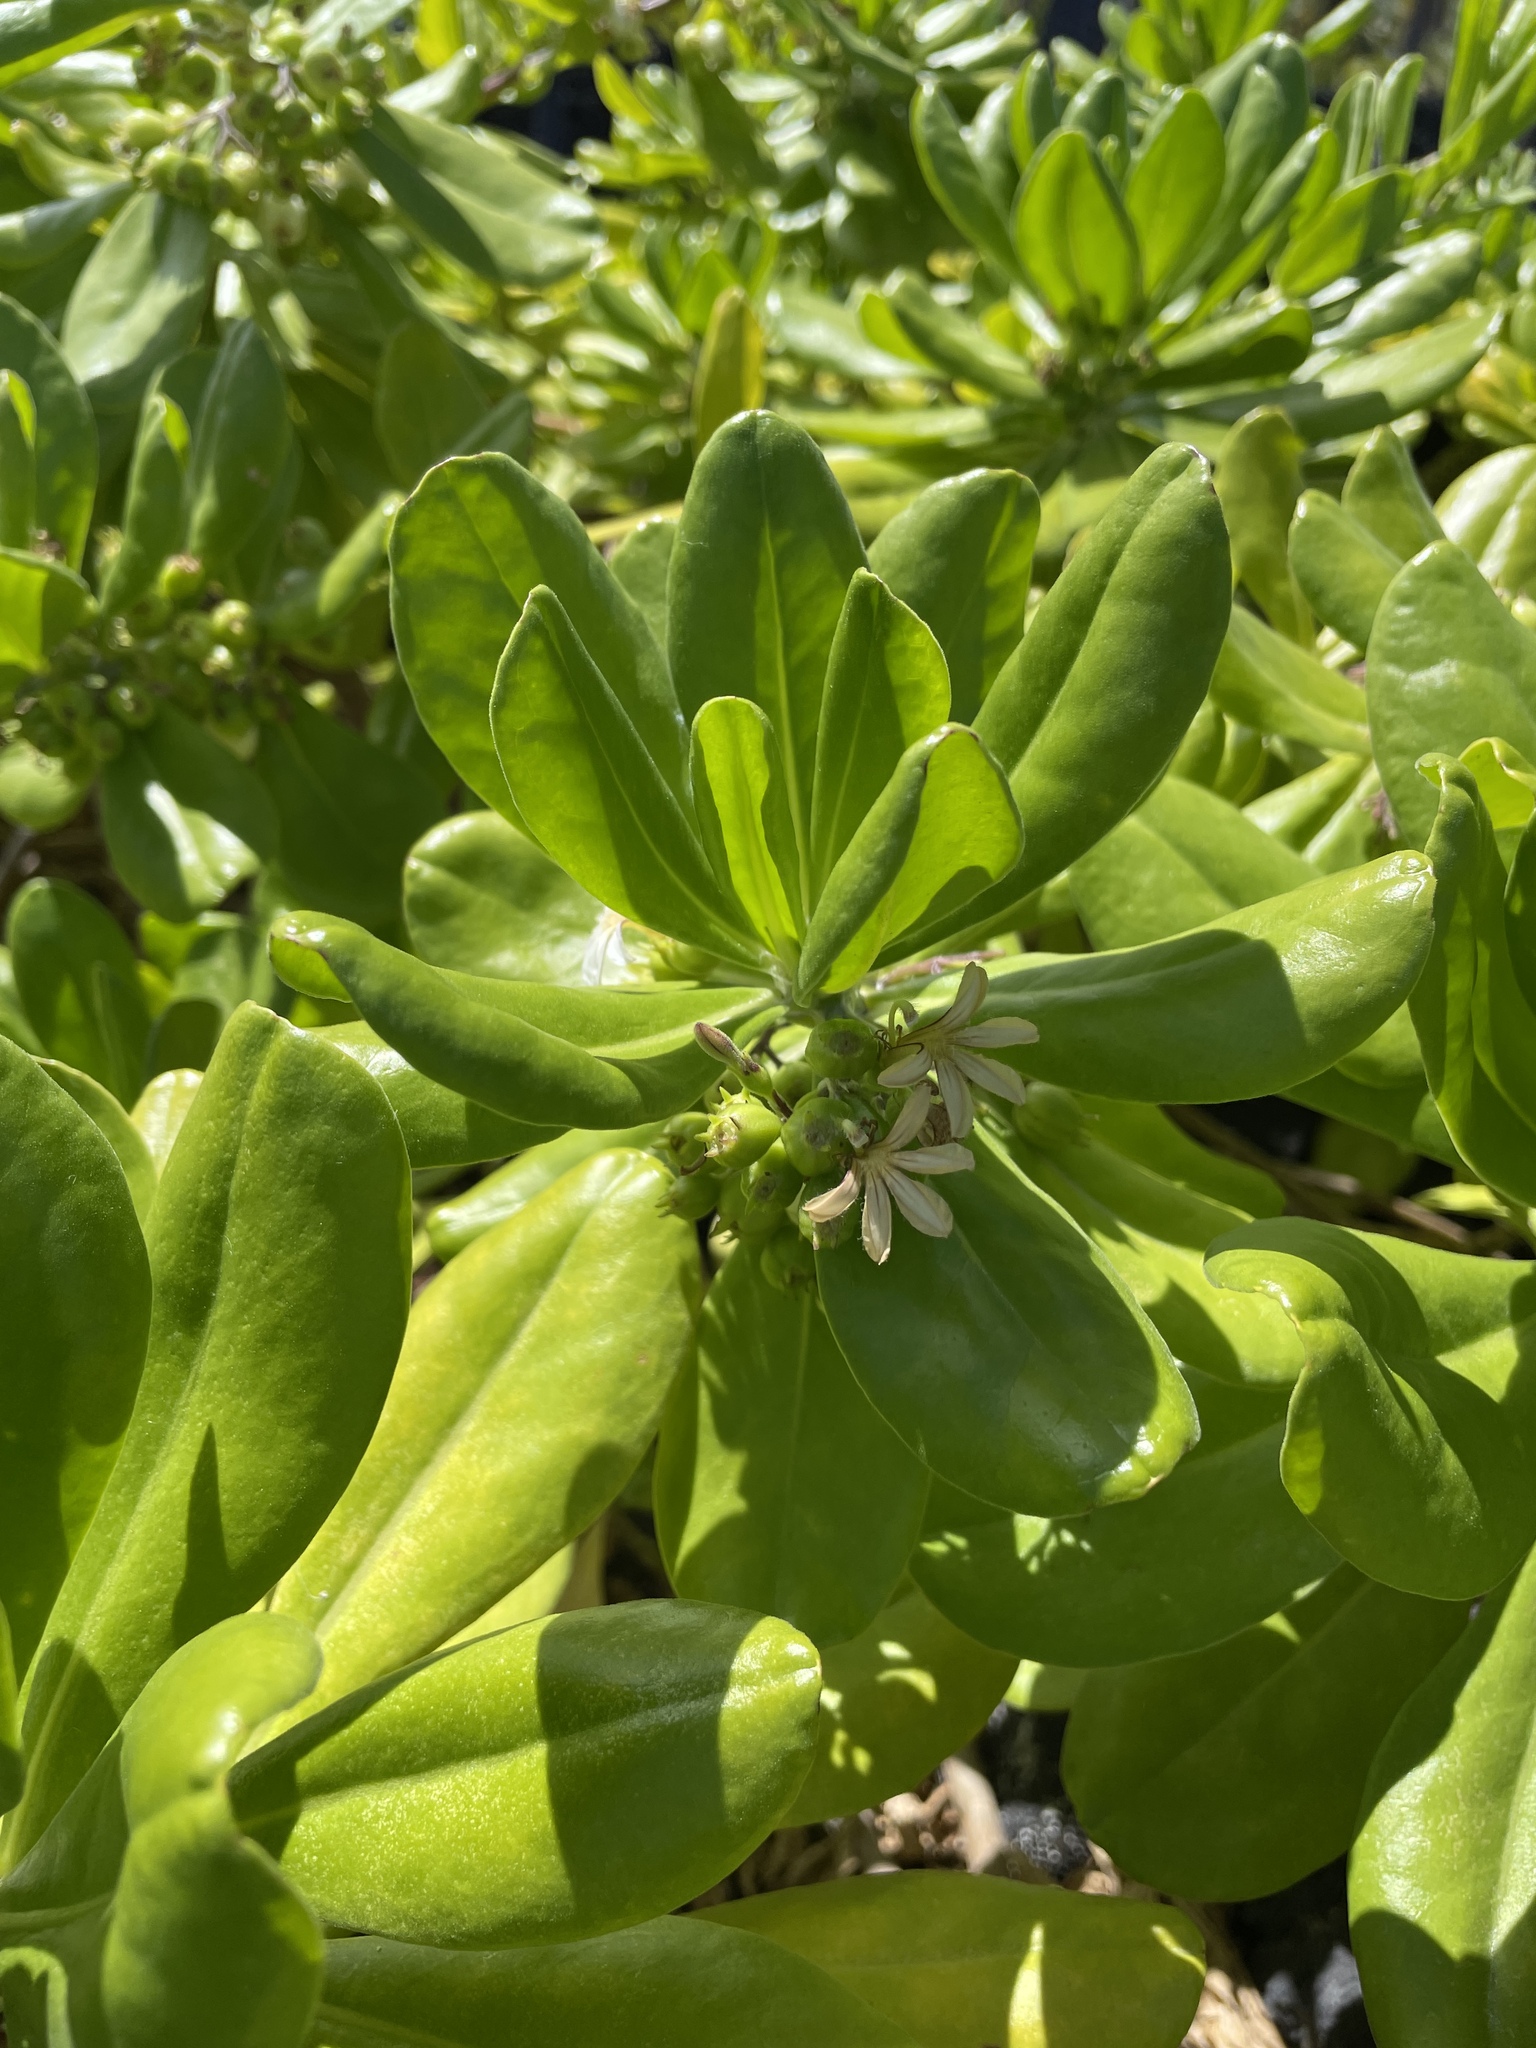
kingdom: Plantae
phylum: Tracheophyta
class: Magnoliopsida
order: Asterales
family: Goodeniaceae
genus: Scaevola
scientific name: Scaevola taccada
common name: Sea lettucetree
